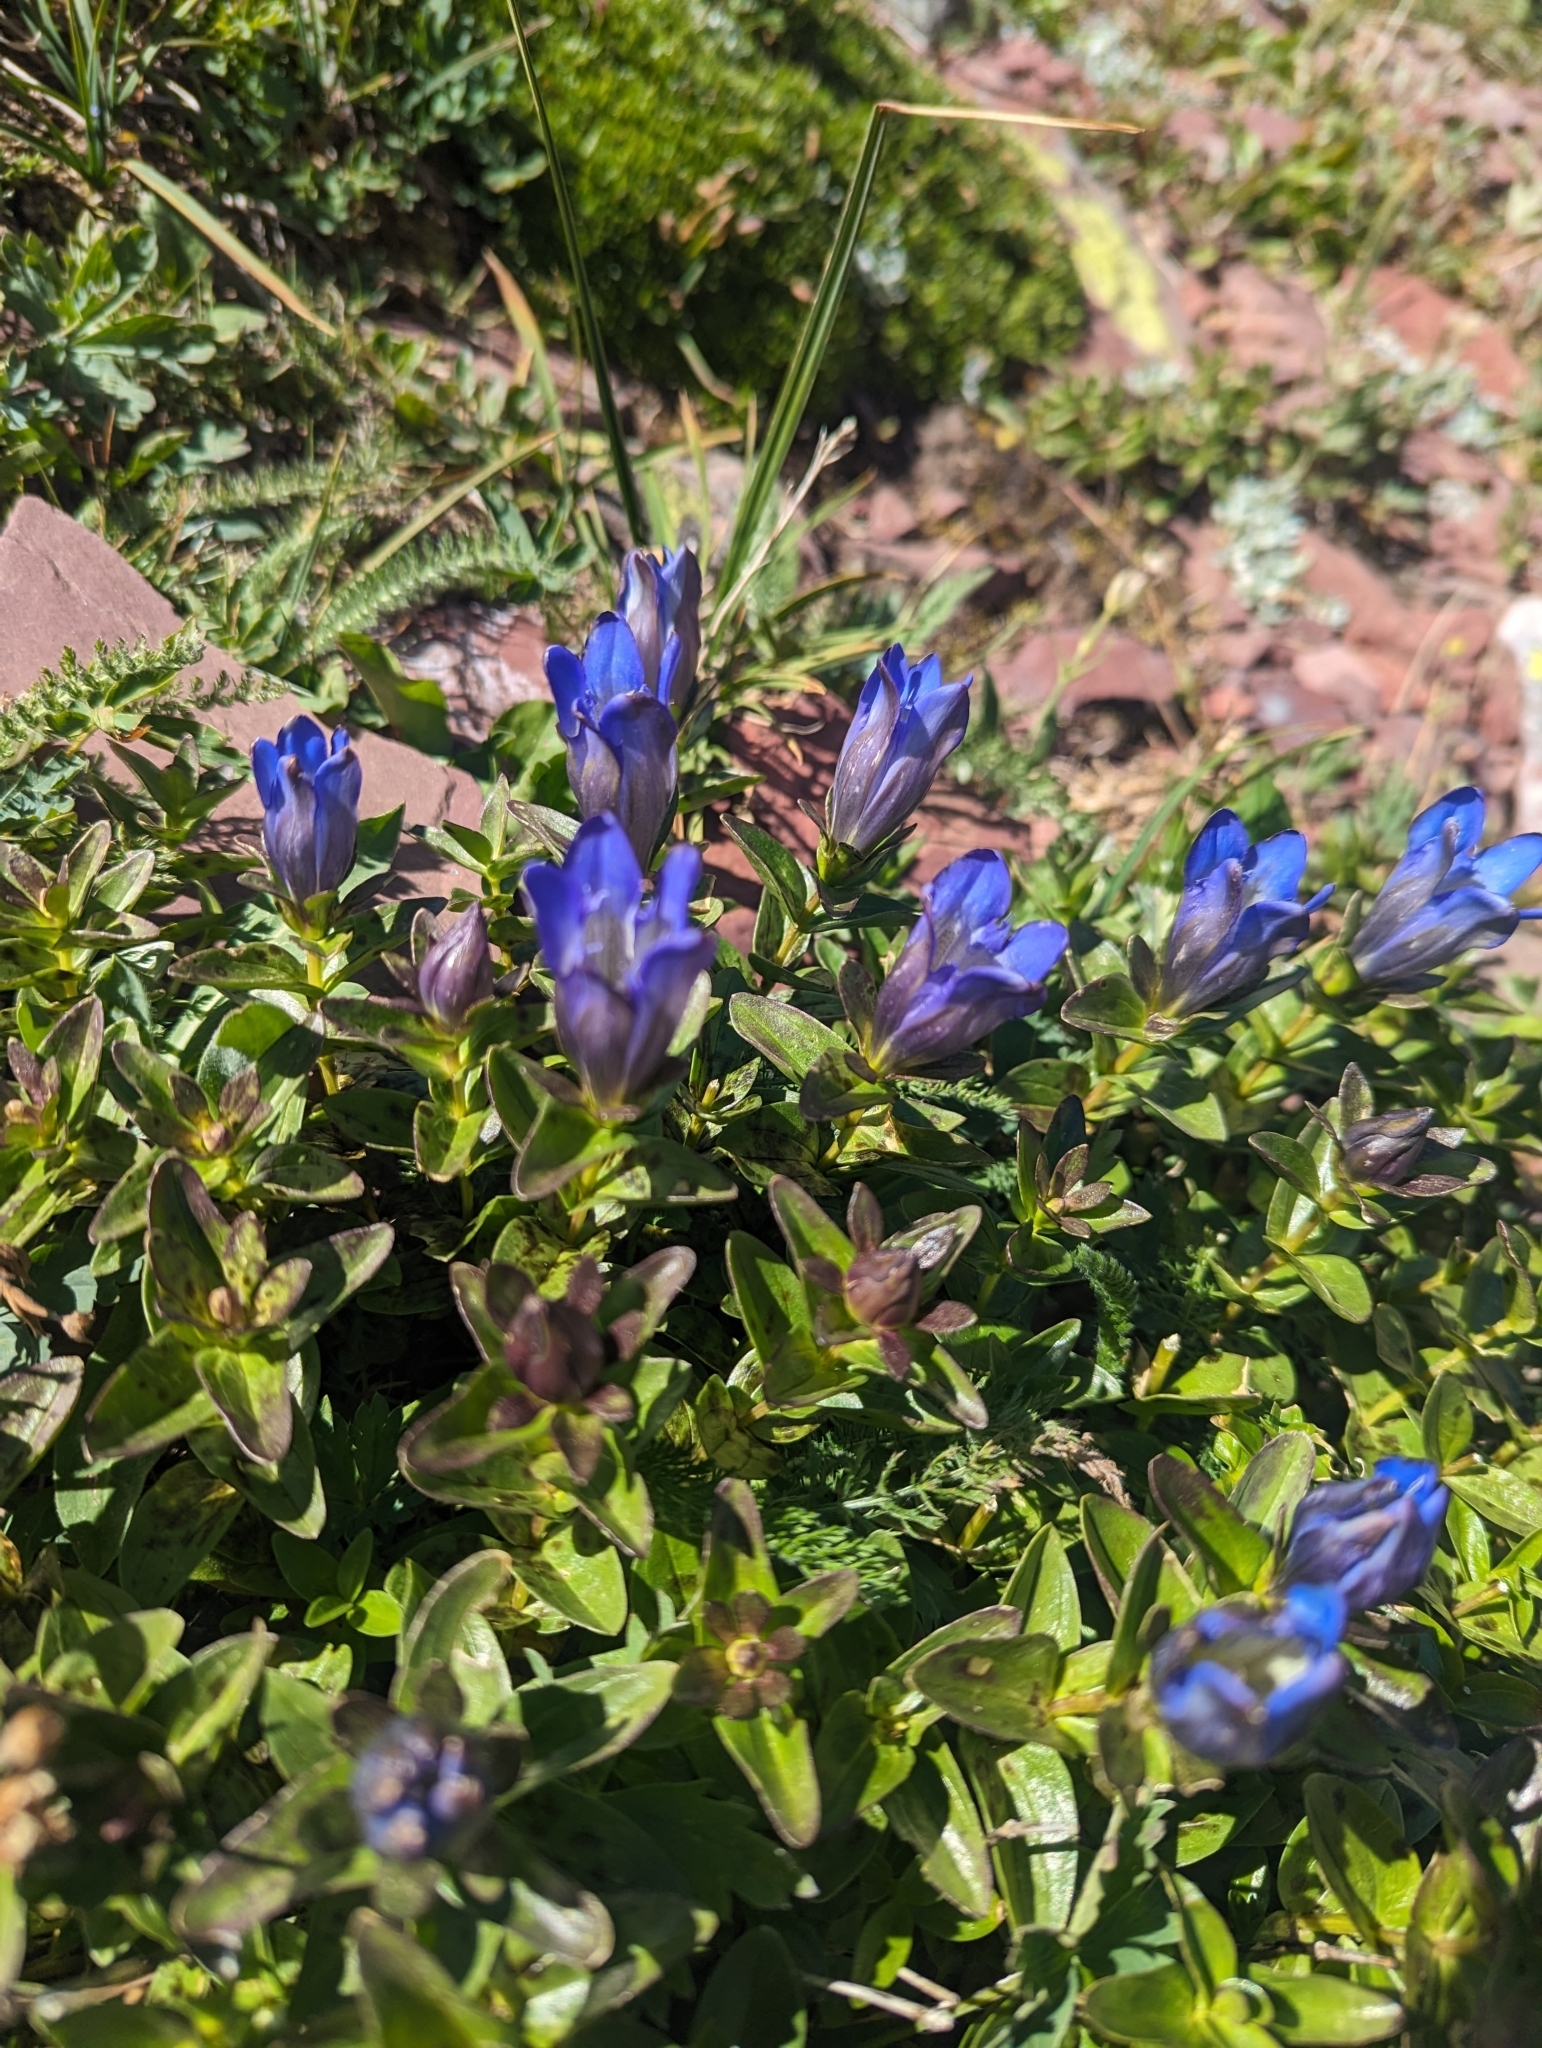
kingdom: Plantae
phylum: Tracheophyta
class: Magnoliopsida
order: Gentianales
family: Gentianaceae
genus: Gentiana
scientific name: Gentiana calycosa
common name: Rainier pleated gentian
